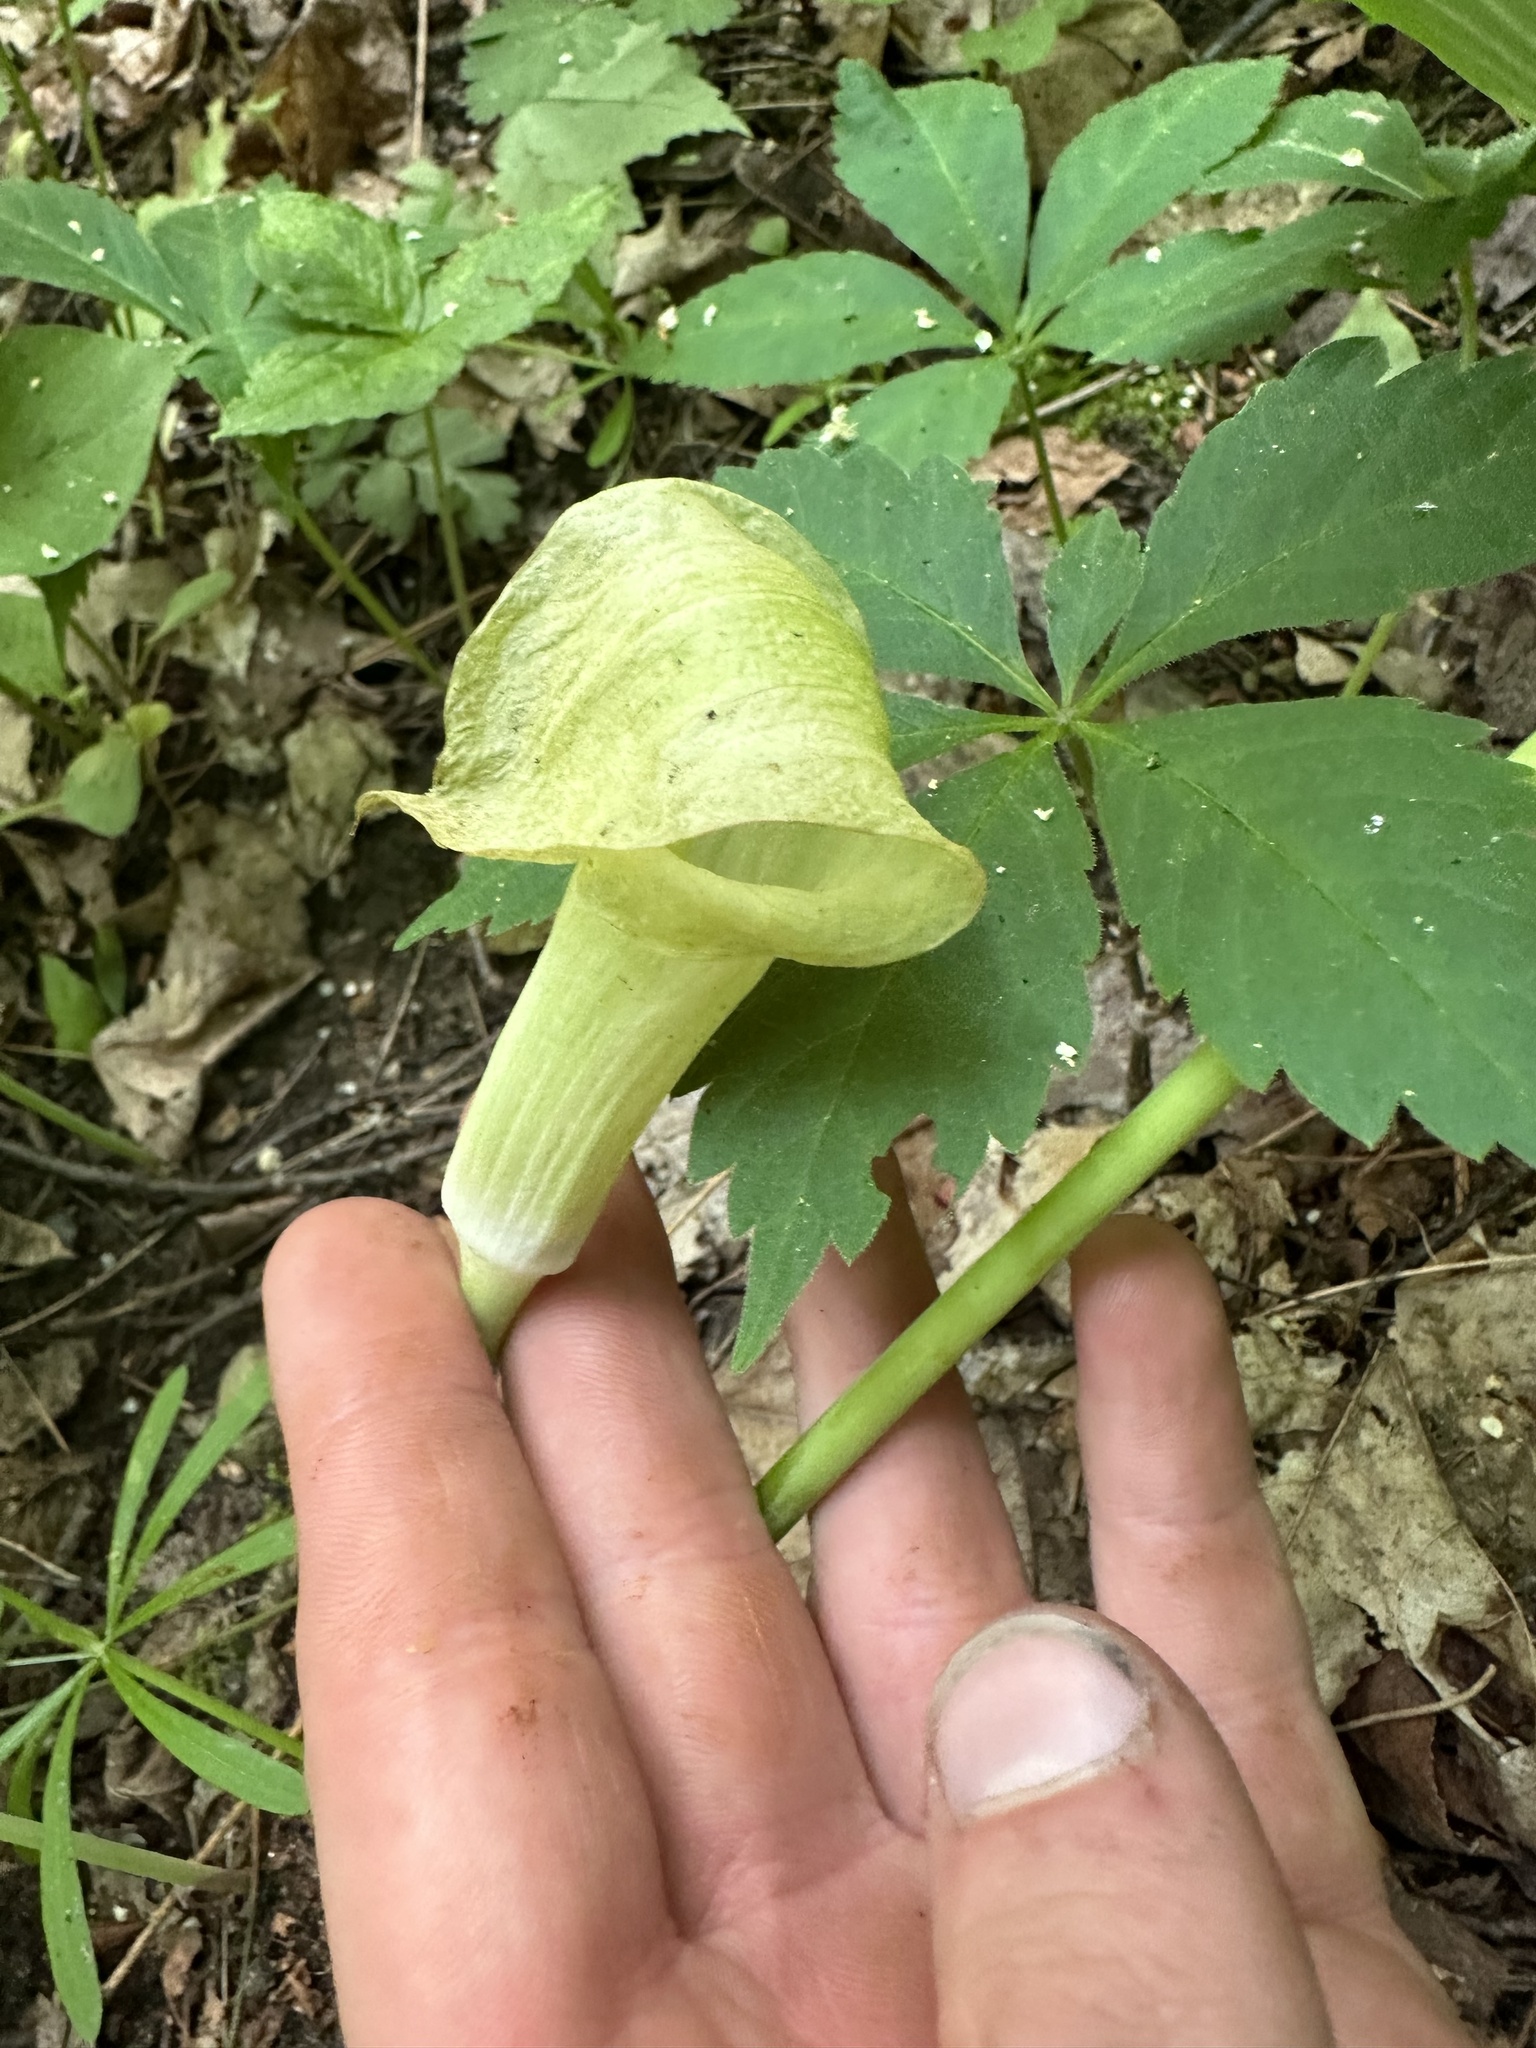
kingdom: Plantae
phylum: Tracheophyta
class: Liliopsida
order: Alismatales
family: Araceae
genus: Arisaema
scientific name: Arisaema triphyllum
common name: Jack-in-the-pulpit
